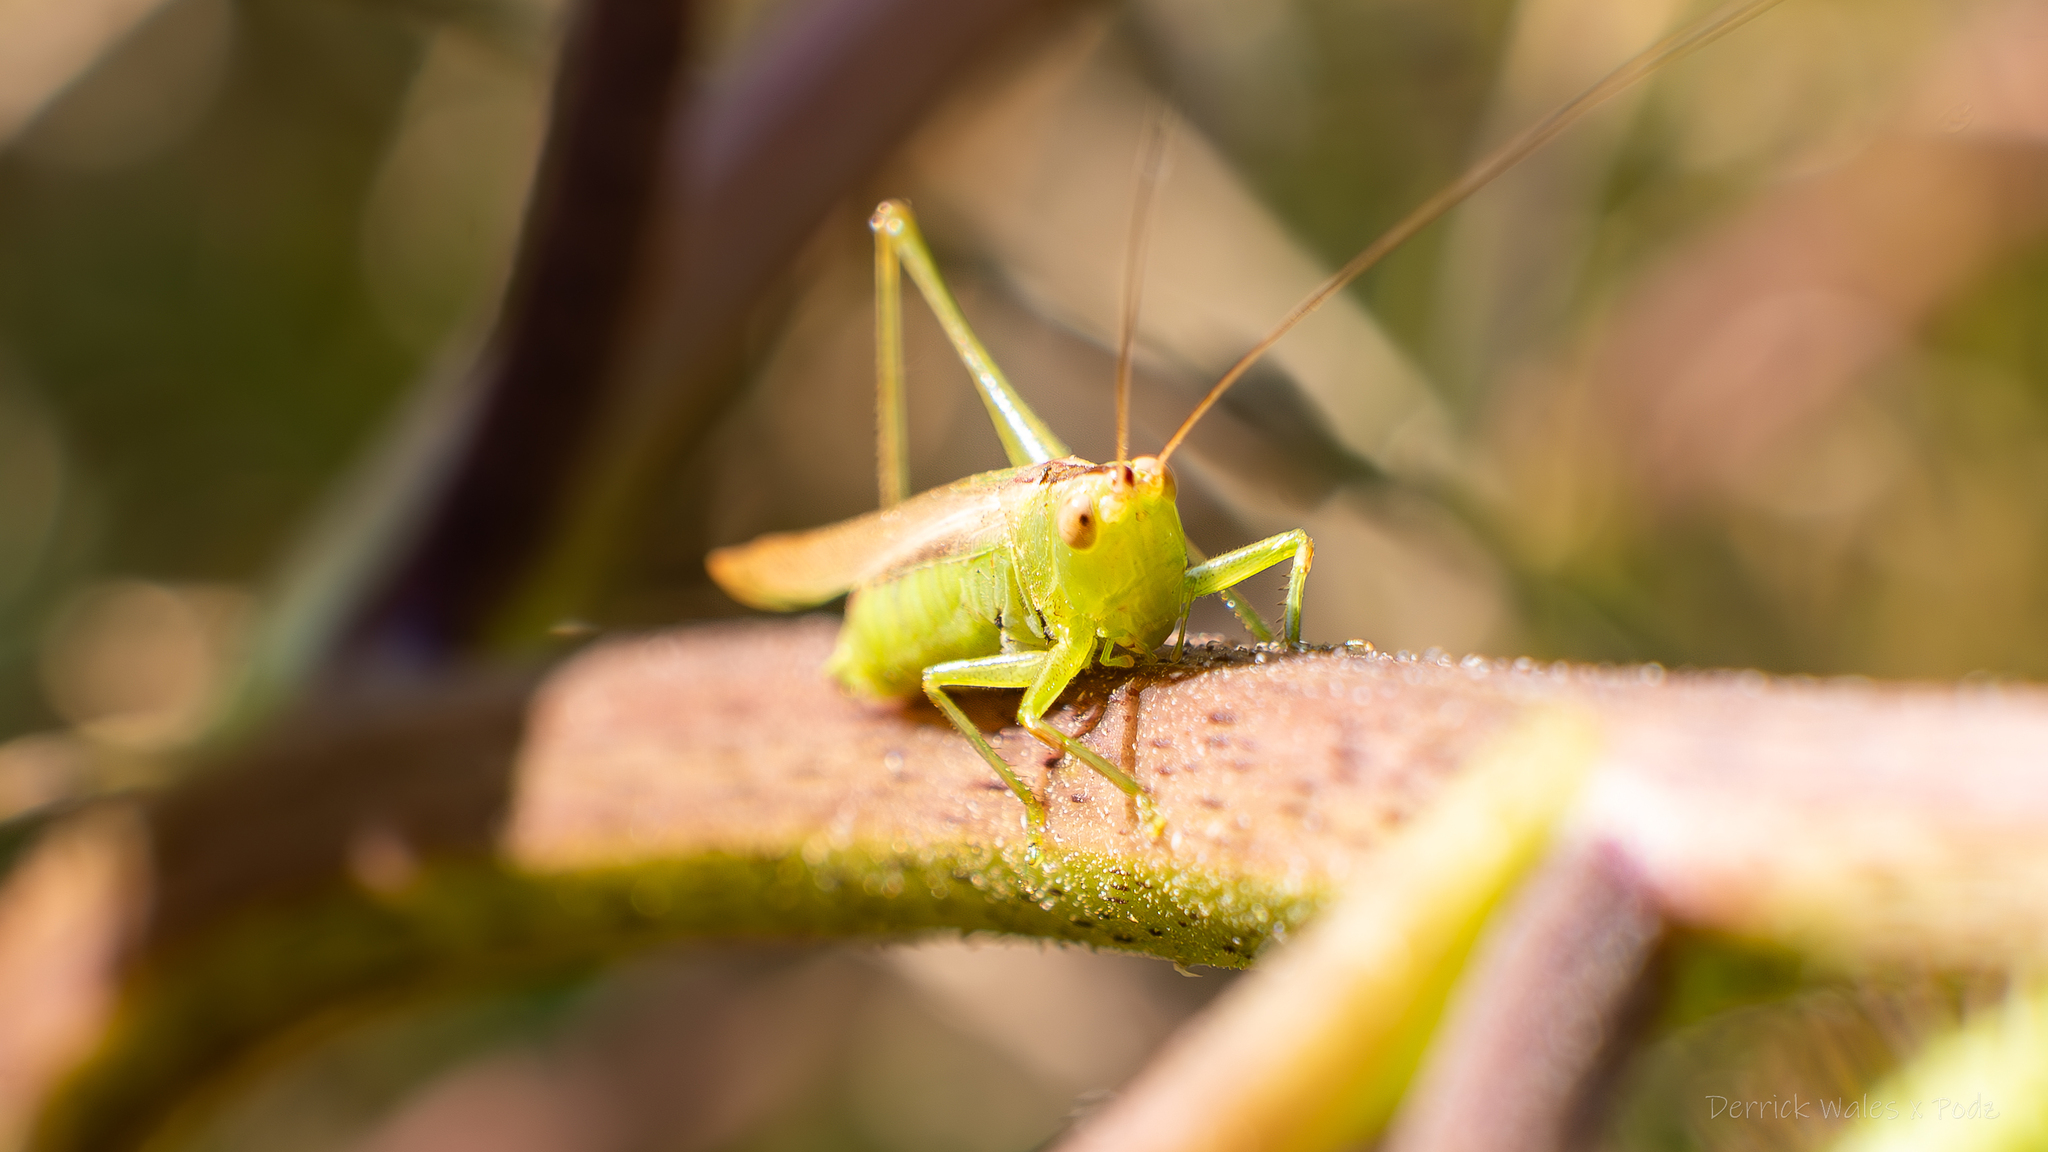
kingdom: Animalia
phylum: Arthropoda
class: Insecta
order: Orthoptera
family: Tettigoniidae
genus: Conocephalus
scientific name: Conocephalus fasciatus
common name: Slender meadow katydid
